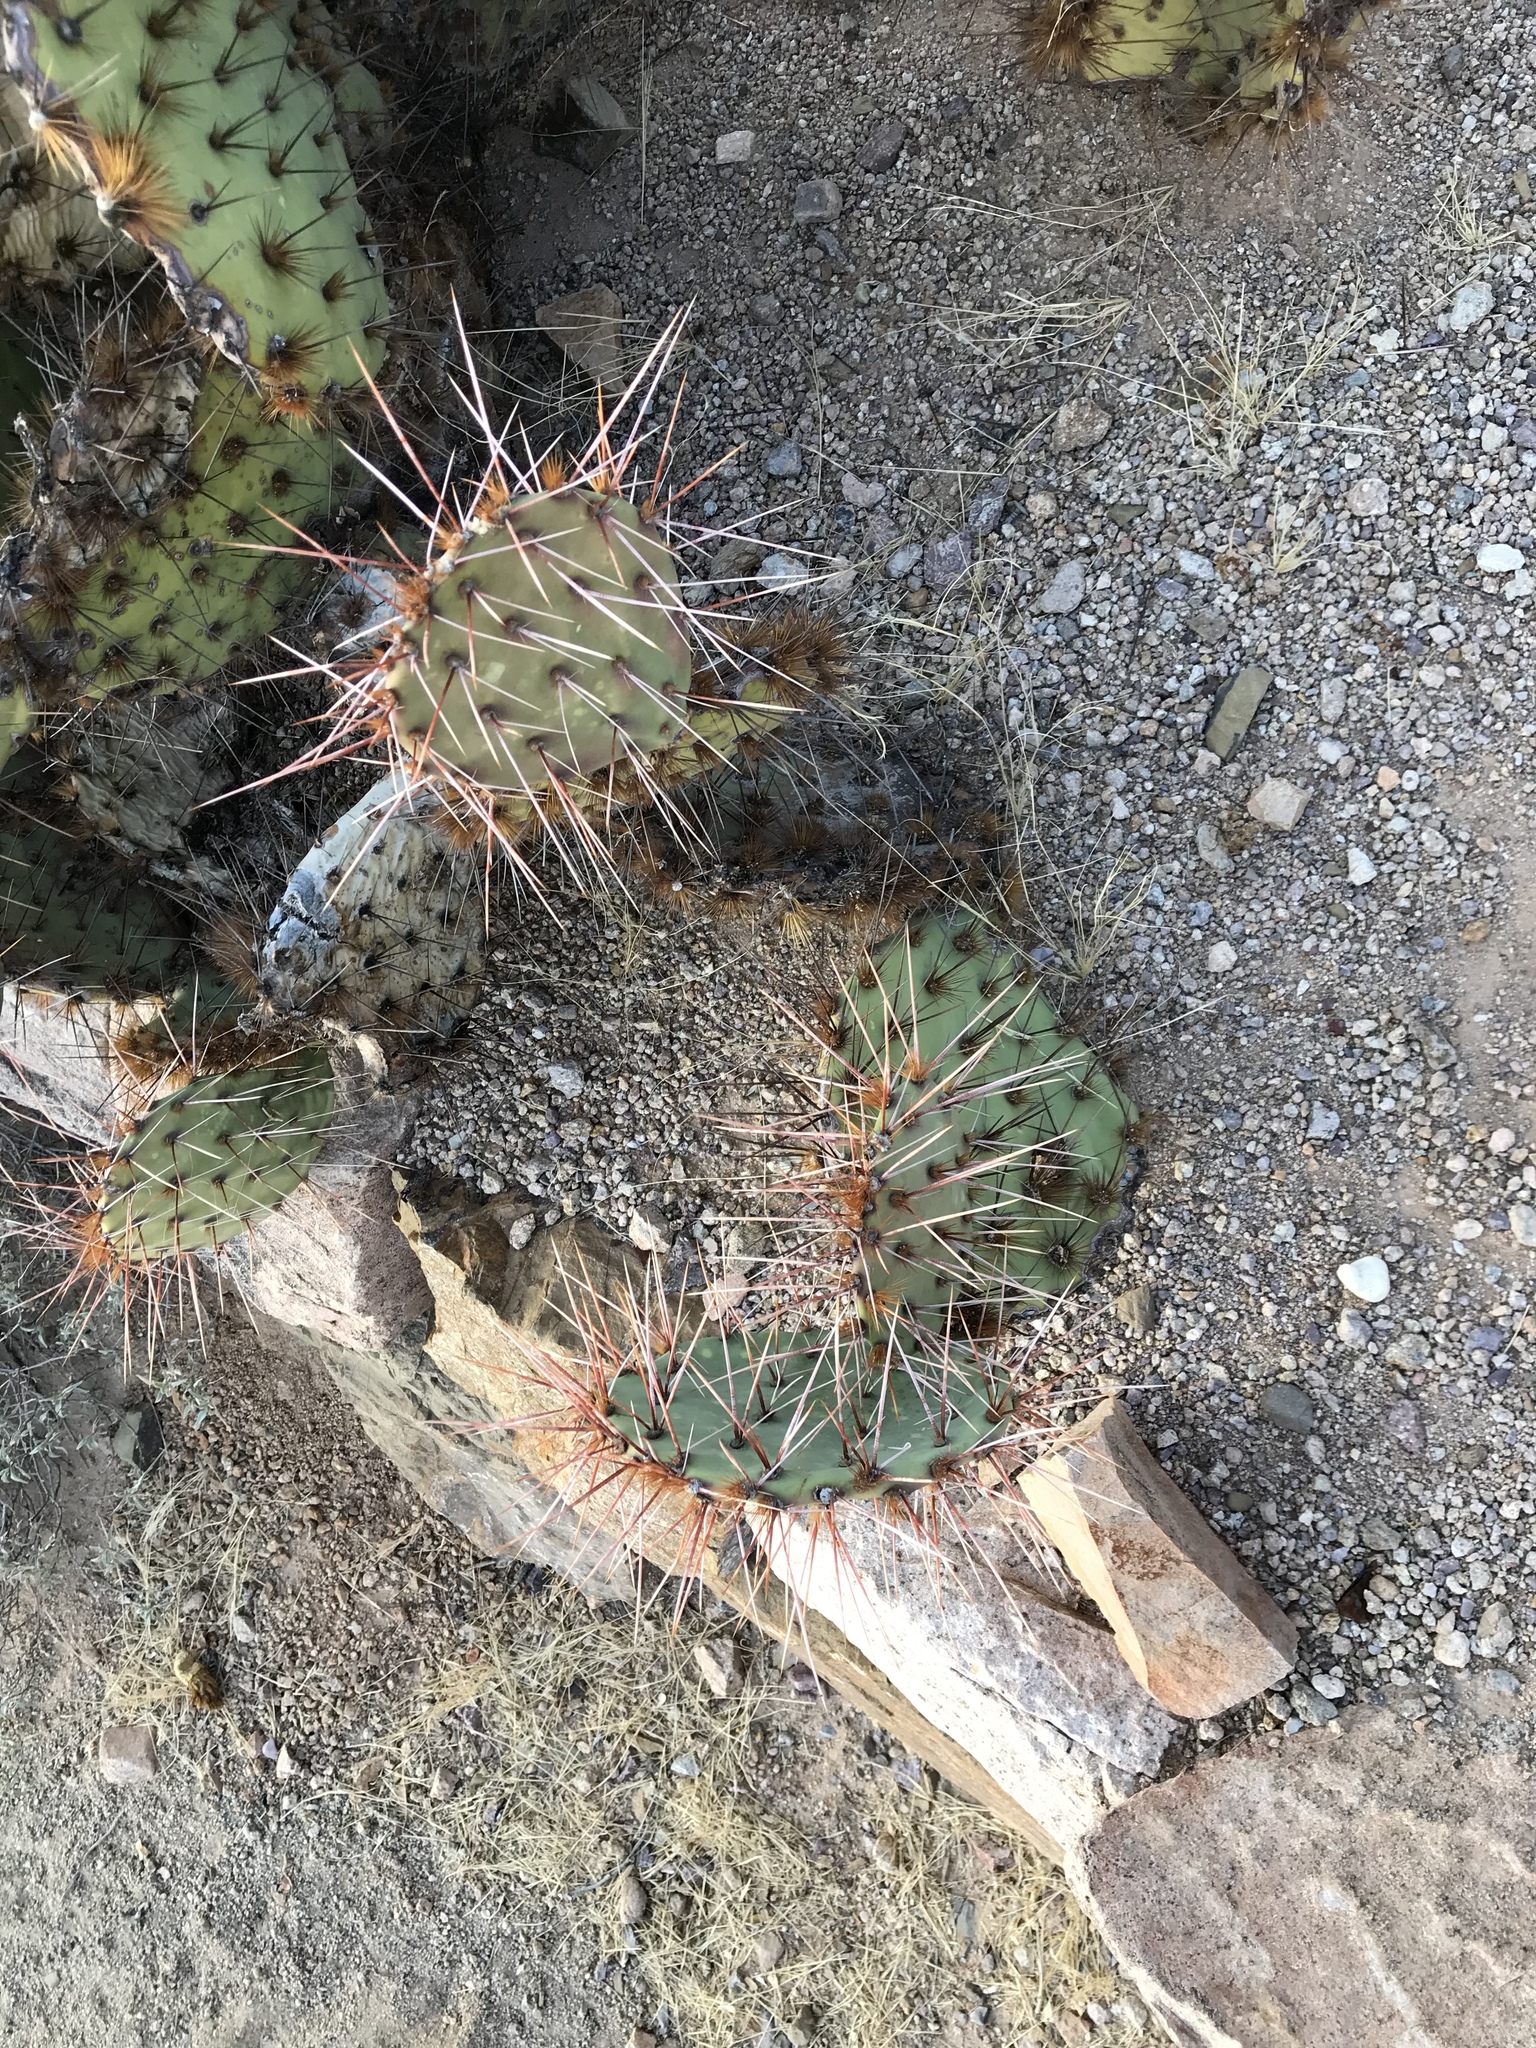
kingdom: Plantae
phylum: Tracheophyta
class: Magnoliopsida
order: Caryophyllales
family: Cactaceae
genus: Opuntia
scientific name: Opuntia phaeacantha
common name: New mexico prickly-pear
